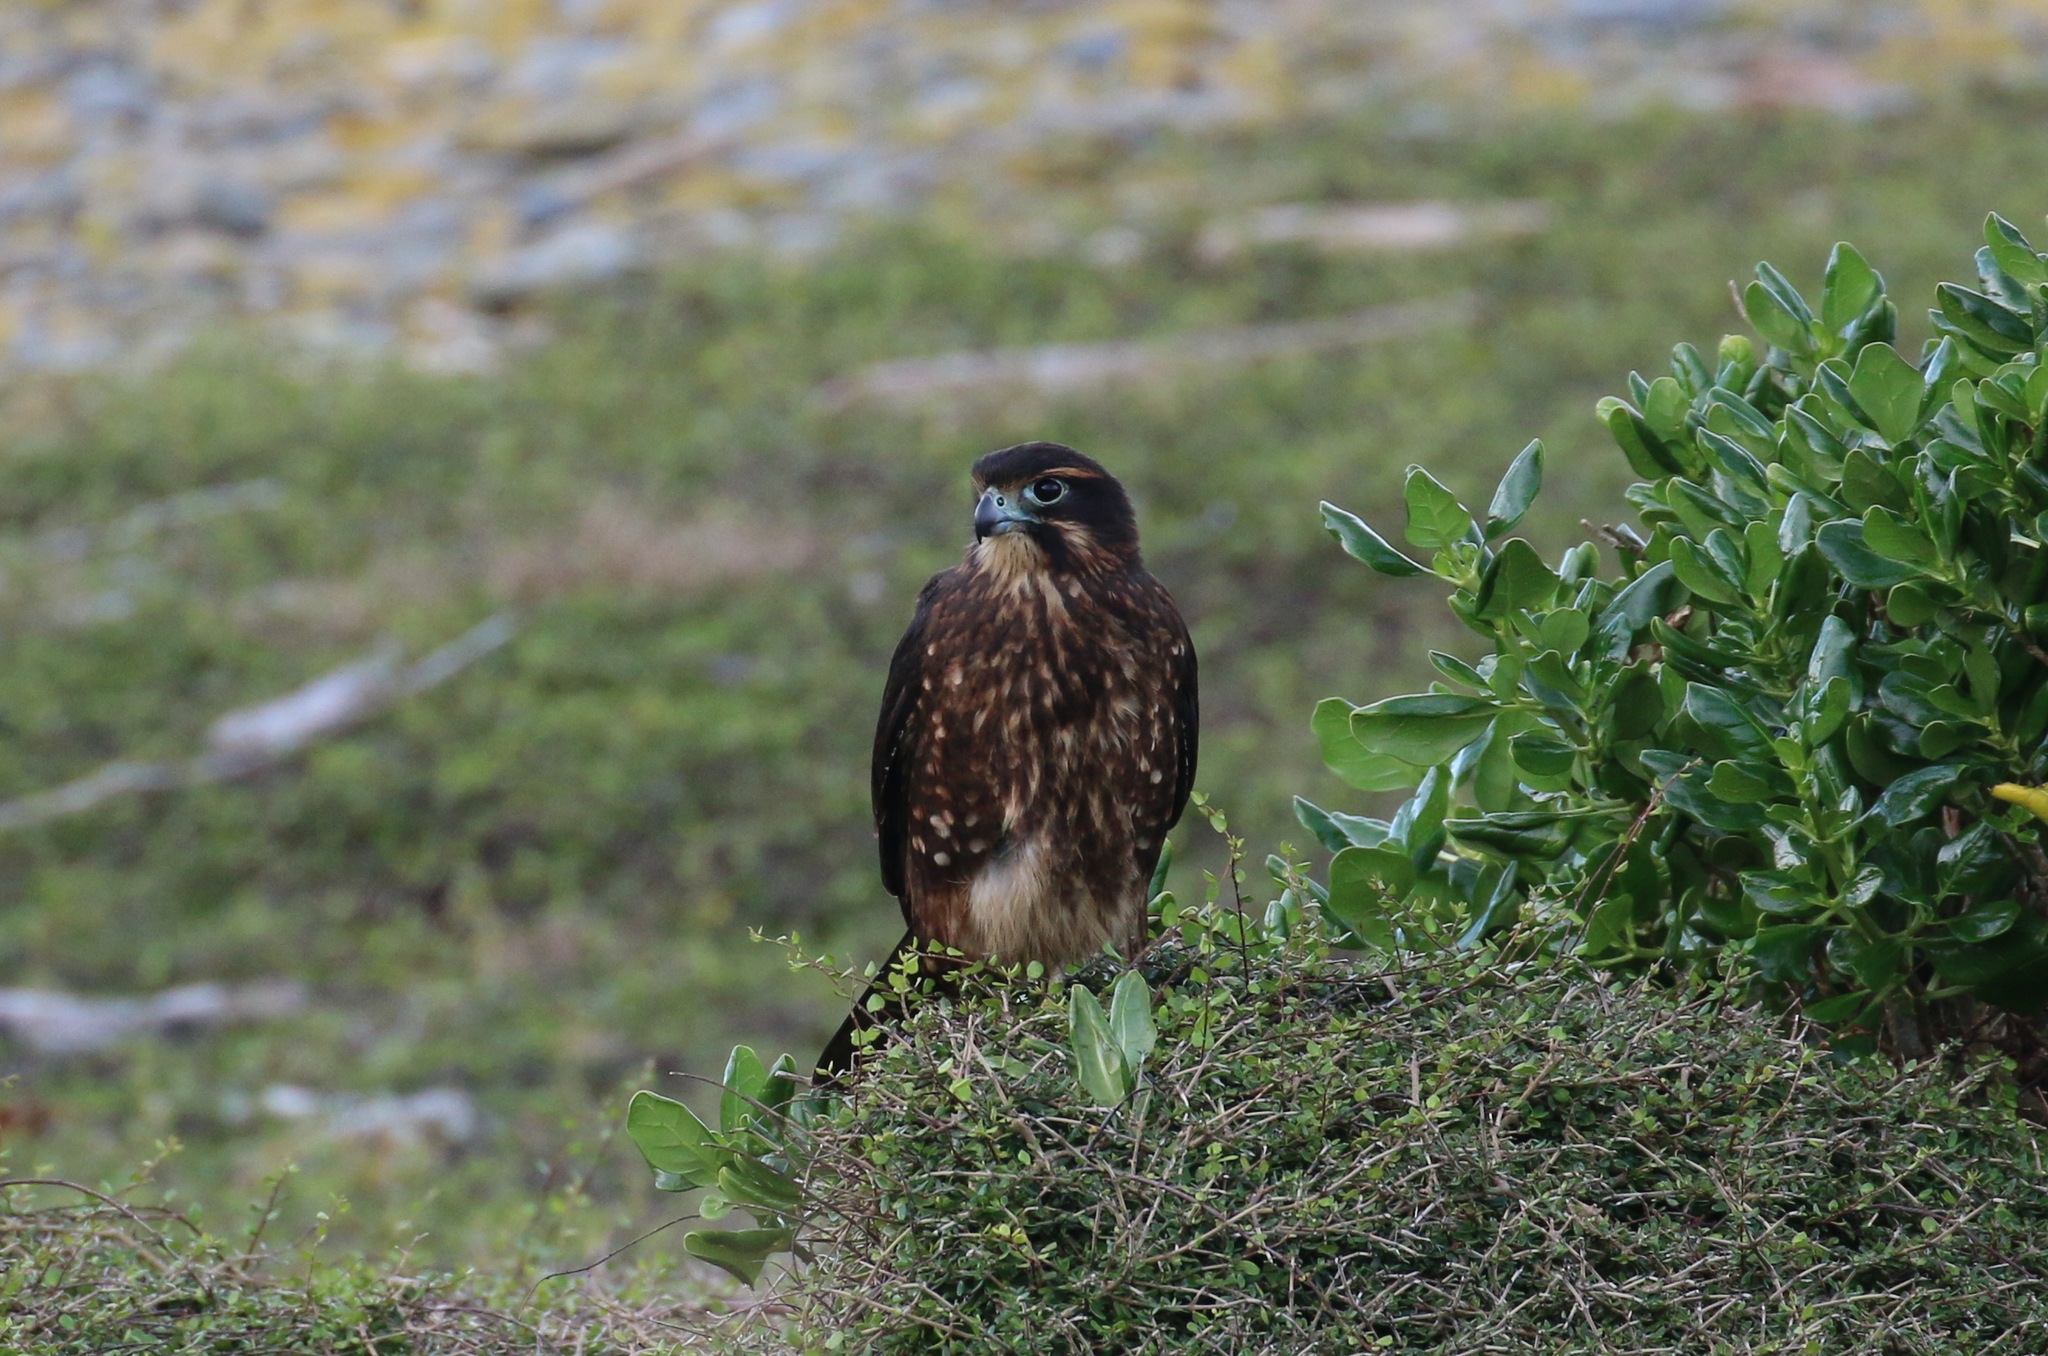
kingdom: Animalia
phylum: Chordata
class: Aves
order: Falconiformes
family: Falconidae
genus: Falco
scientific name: Falco novaeseelandiae
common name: New zealand falcon
